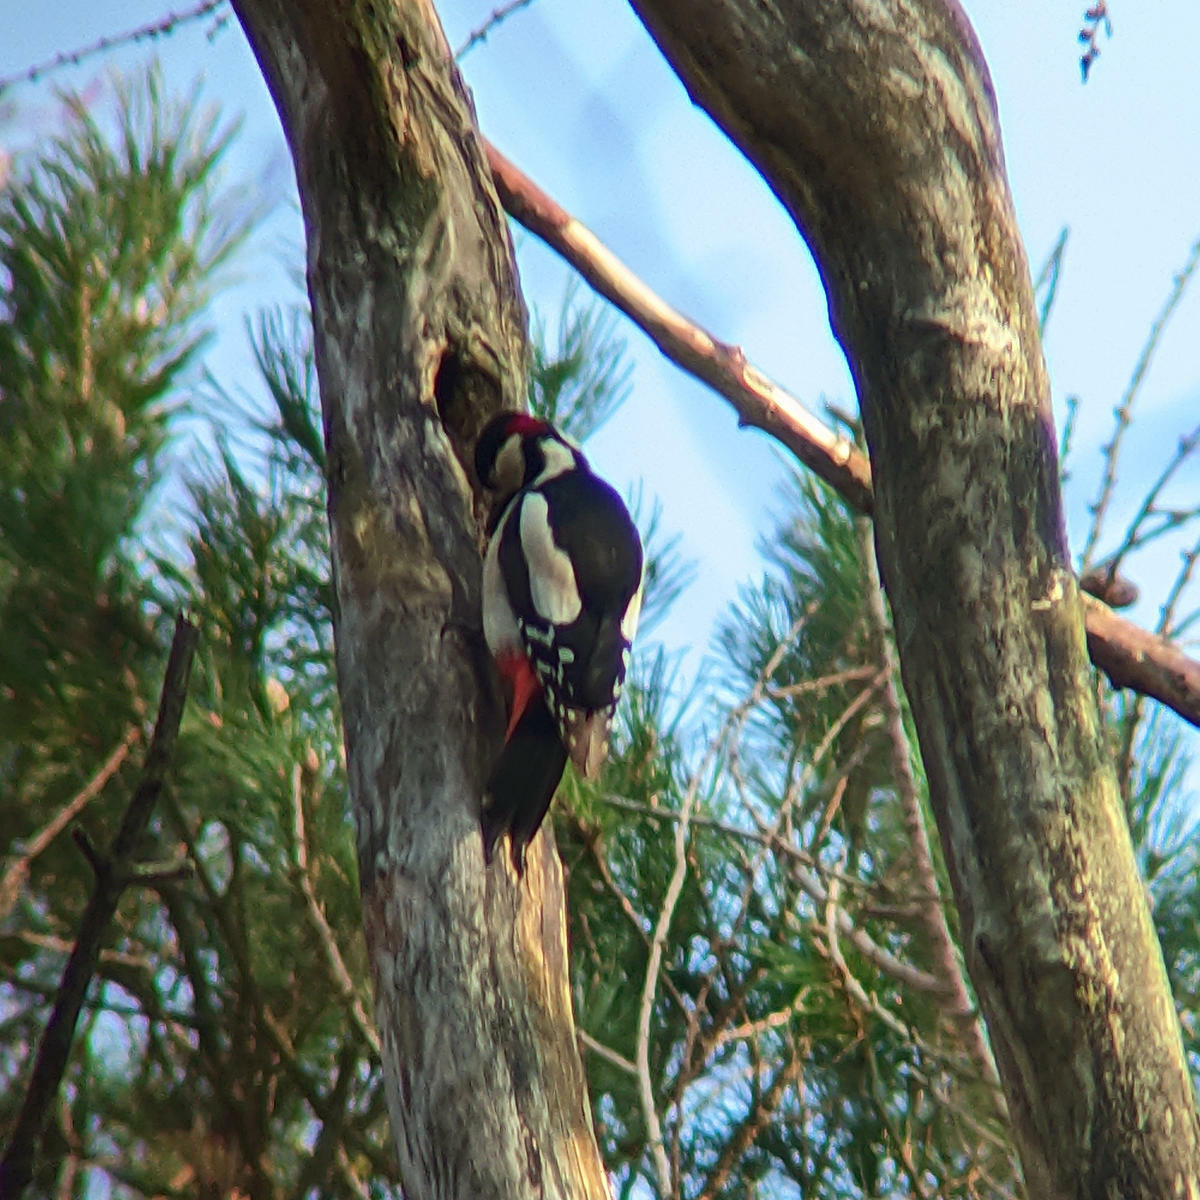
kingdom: Animalia
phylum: Chordata
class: Aves
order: Piciformes
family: Picidae
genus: Dendrocopos
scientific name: Dendrocopos major
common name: Great spotted woodpecker
